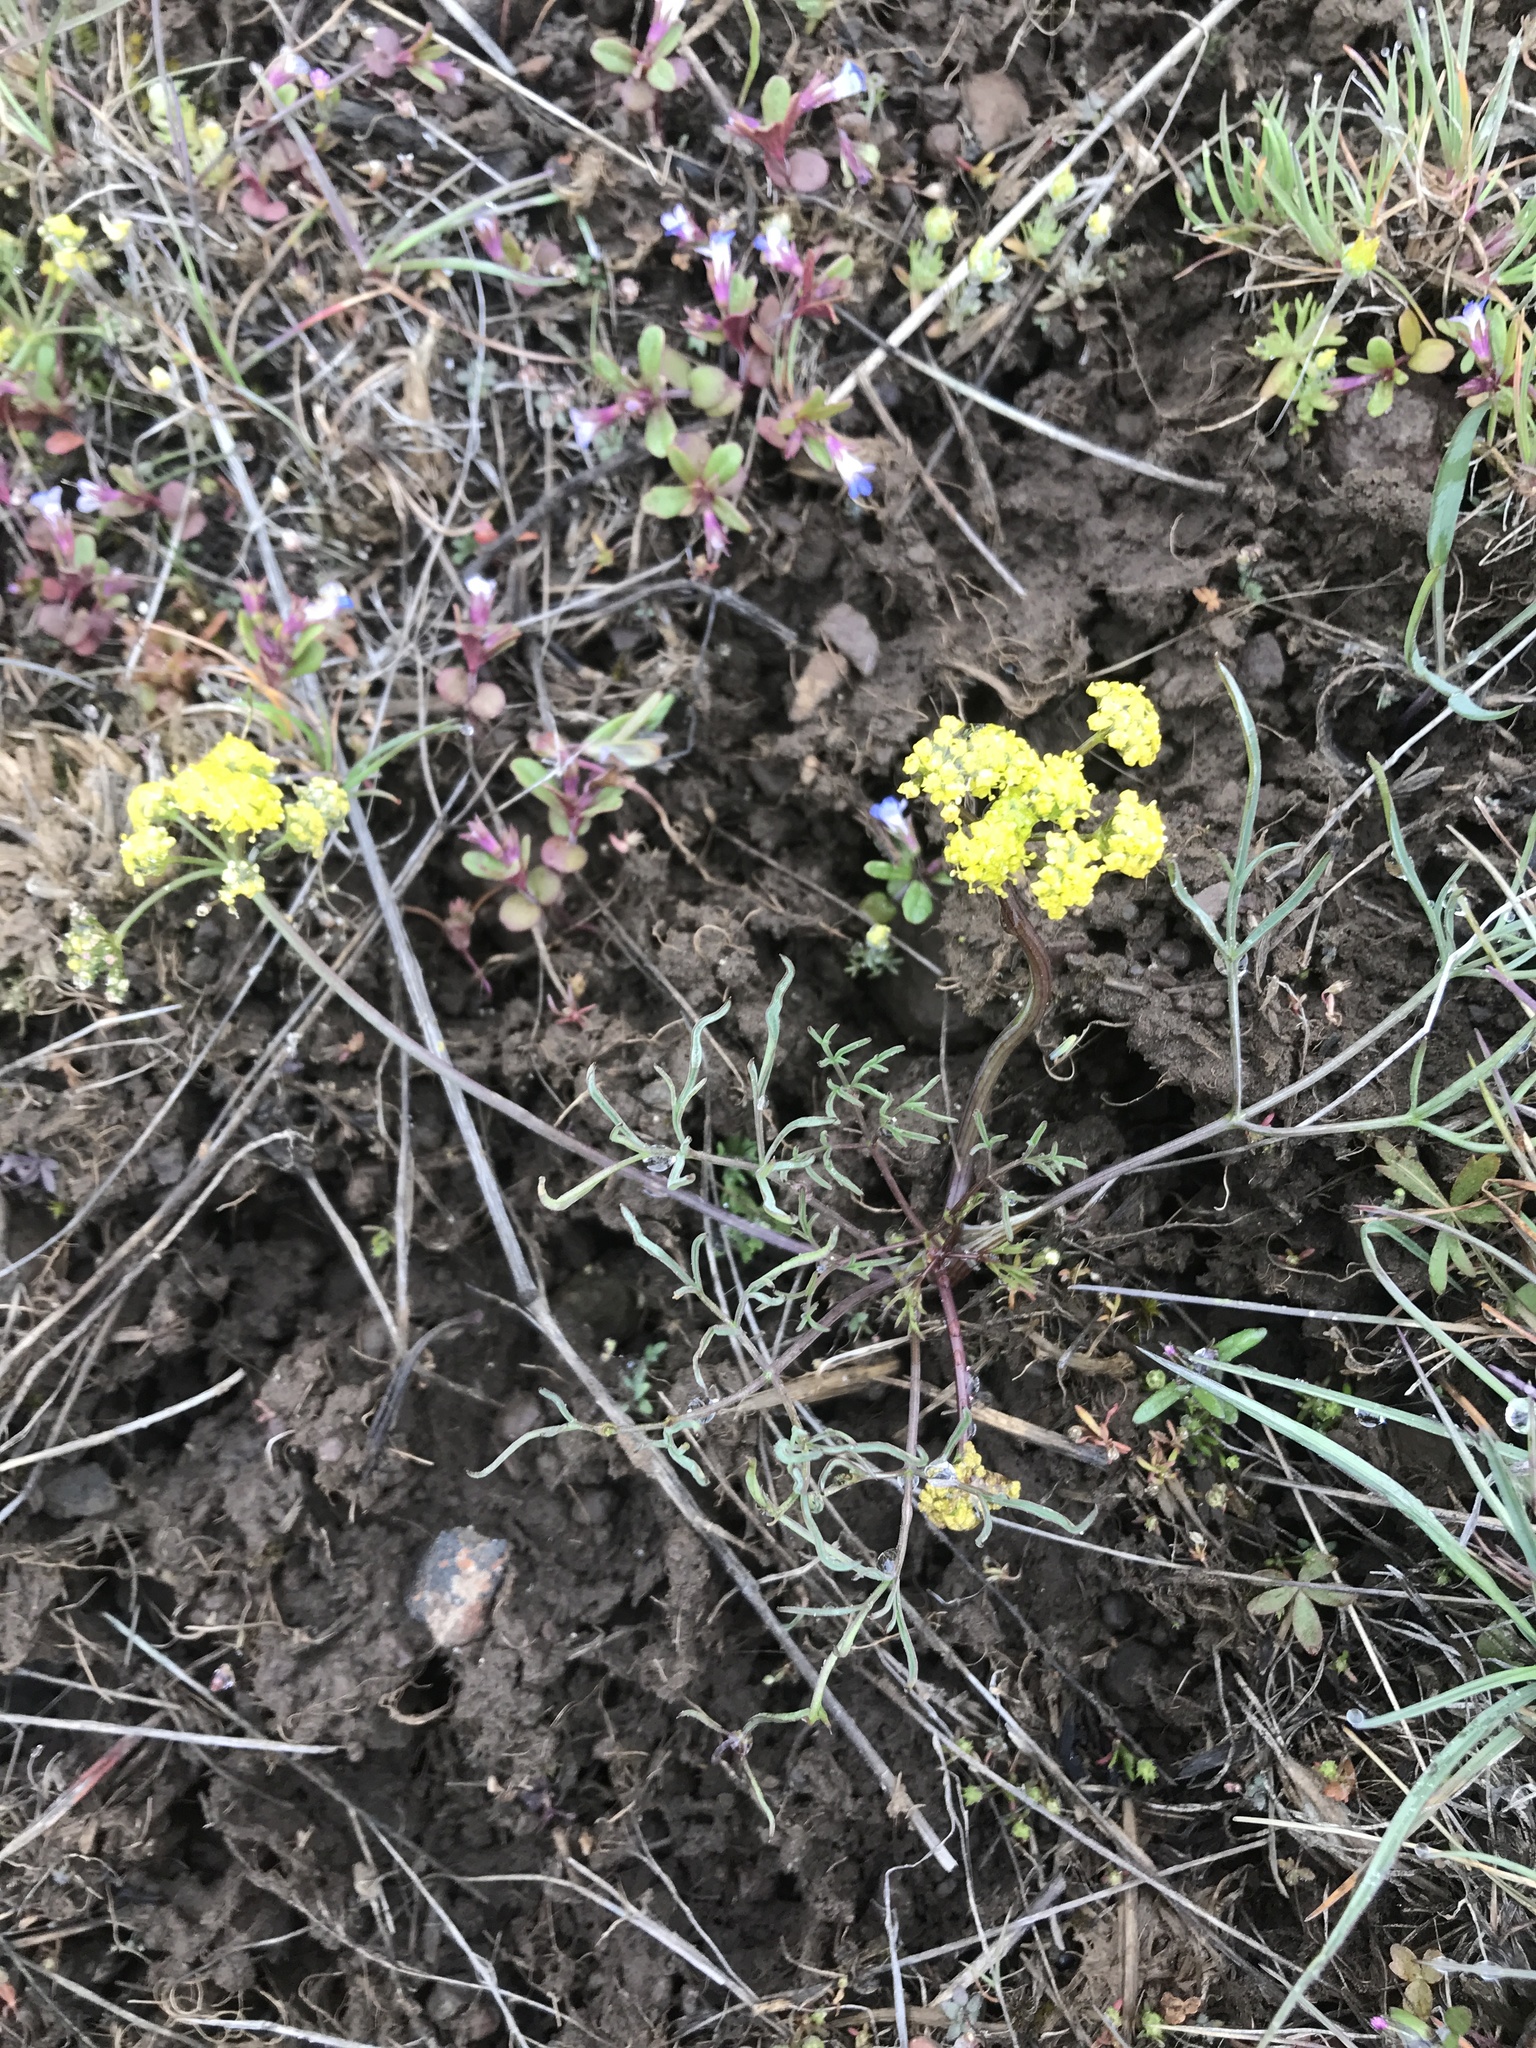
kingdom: Plantae
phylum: Tracheophyta
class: Magnoliopsida
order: Apiales
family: Apiaceae
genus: Lomatium
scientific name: Lomatium farinosum
